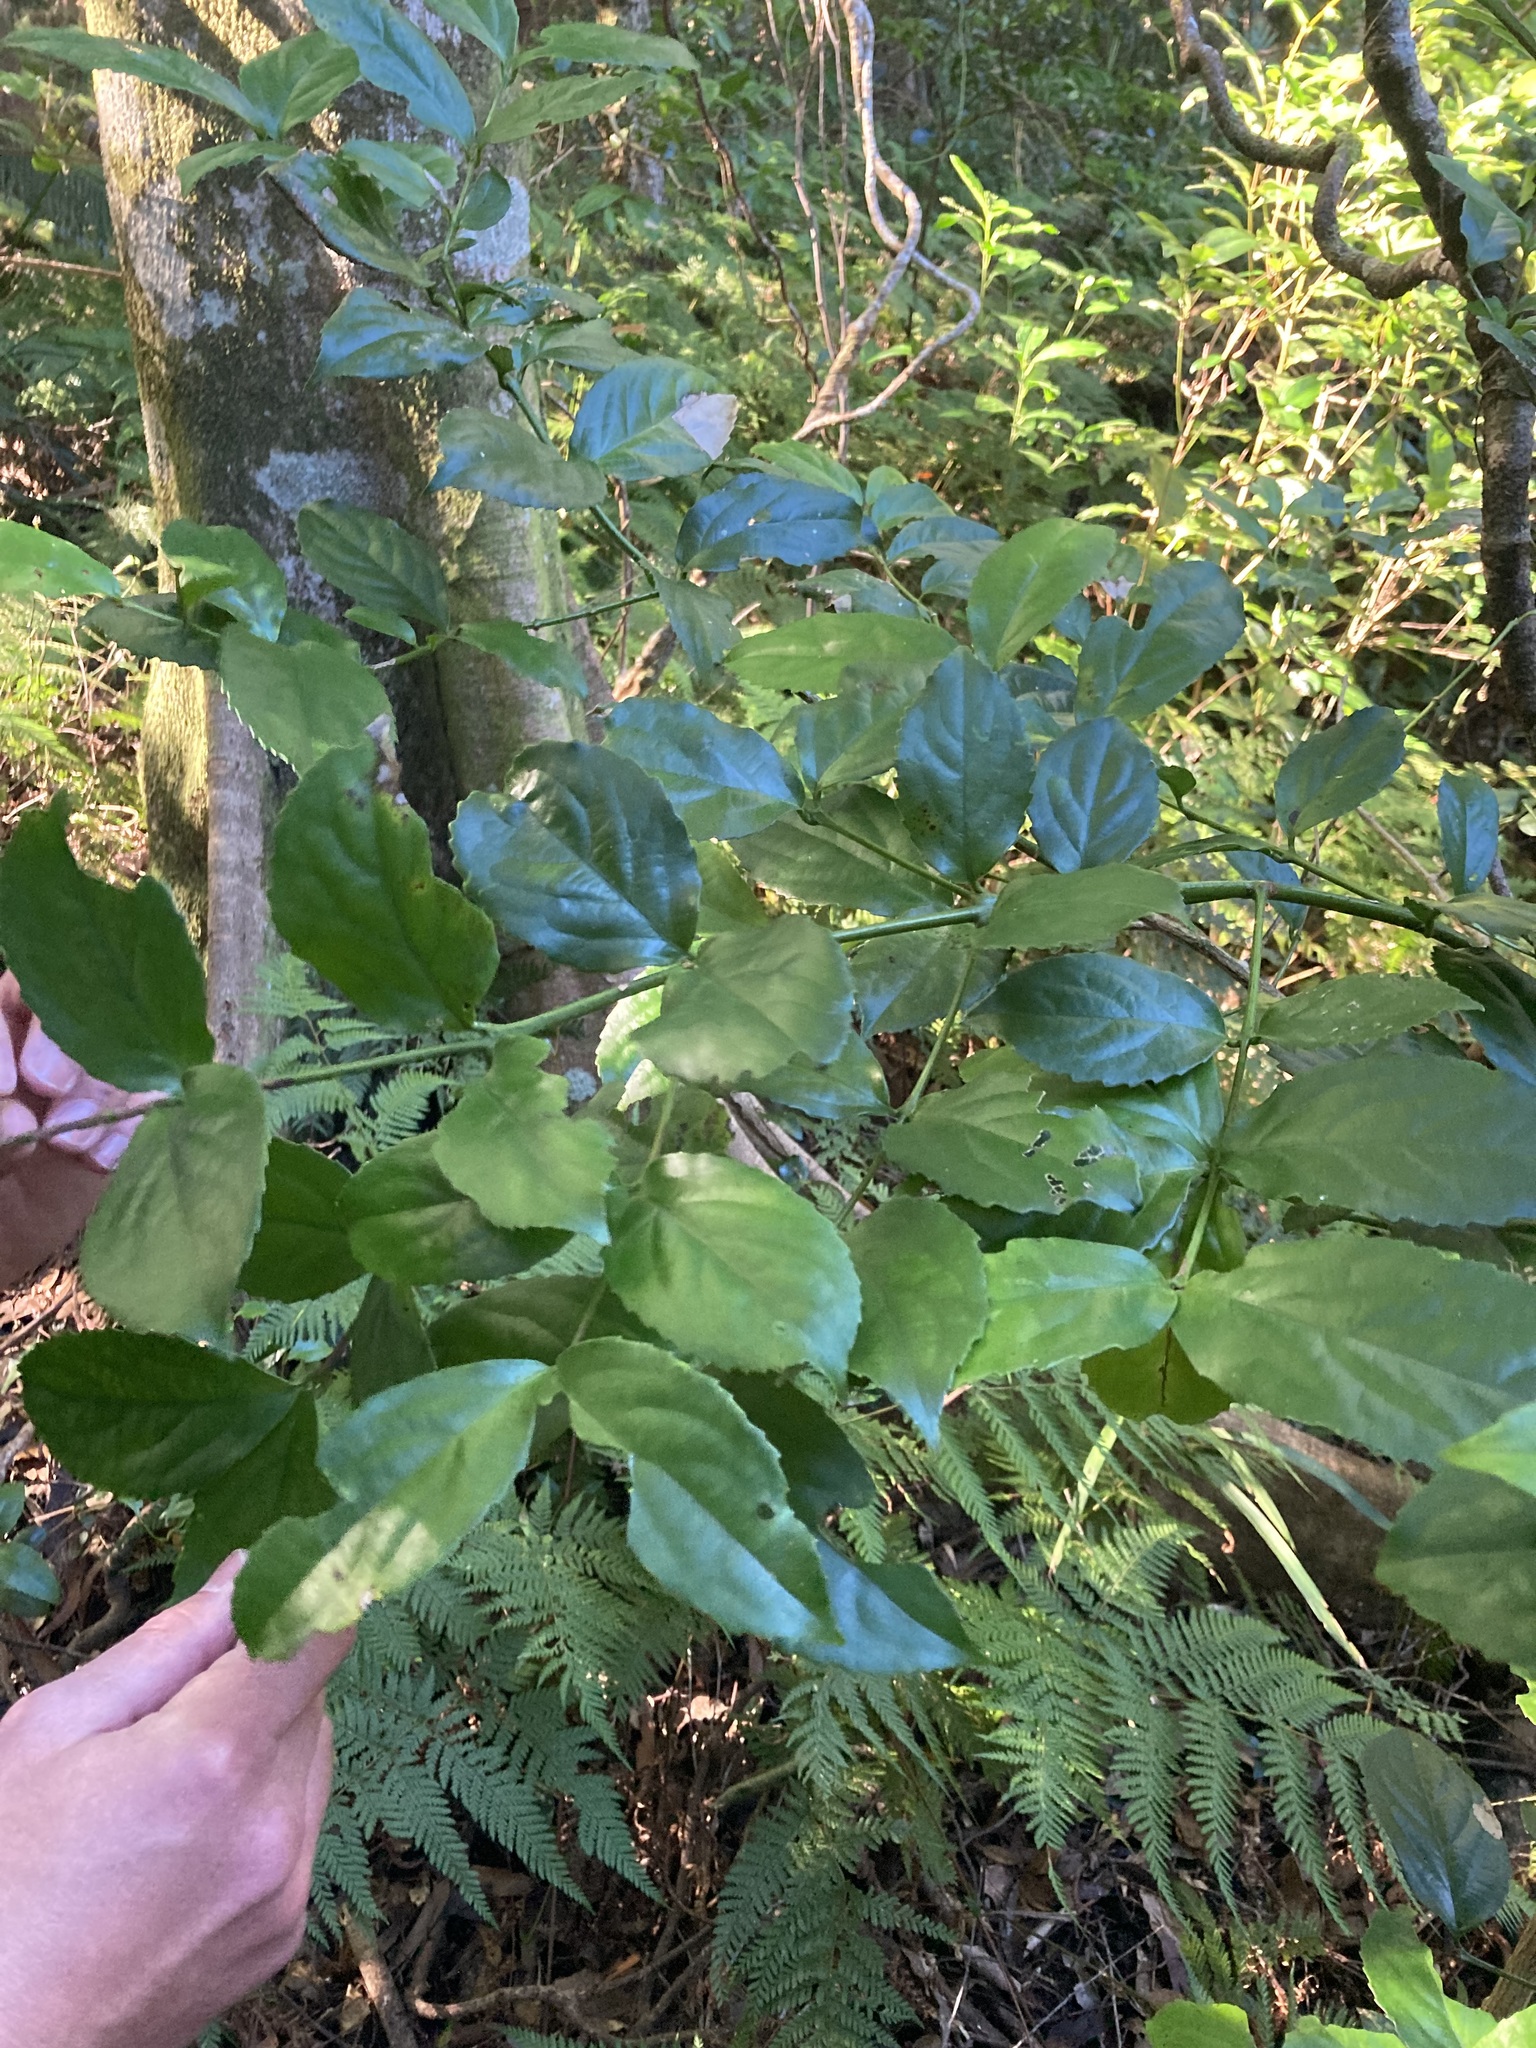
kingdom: Plantae
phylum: Tracheophyta
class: Magnoliopsida
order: Laurales
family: Atherospermataceae
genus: Daphnandra
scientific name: Daphnandra micrantha
